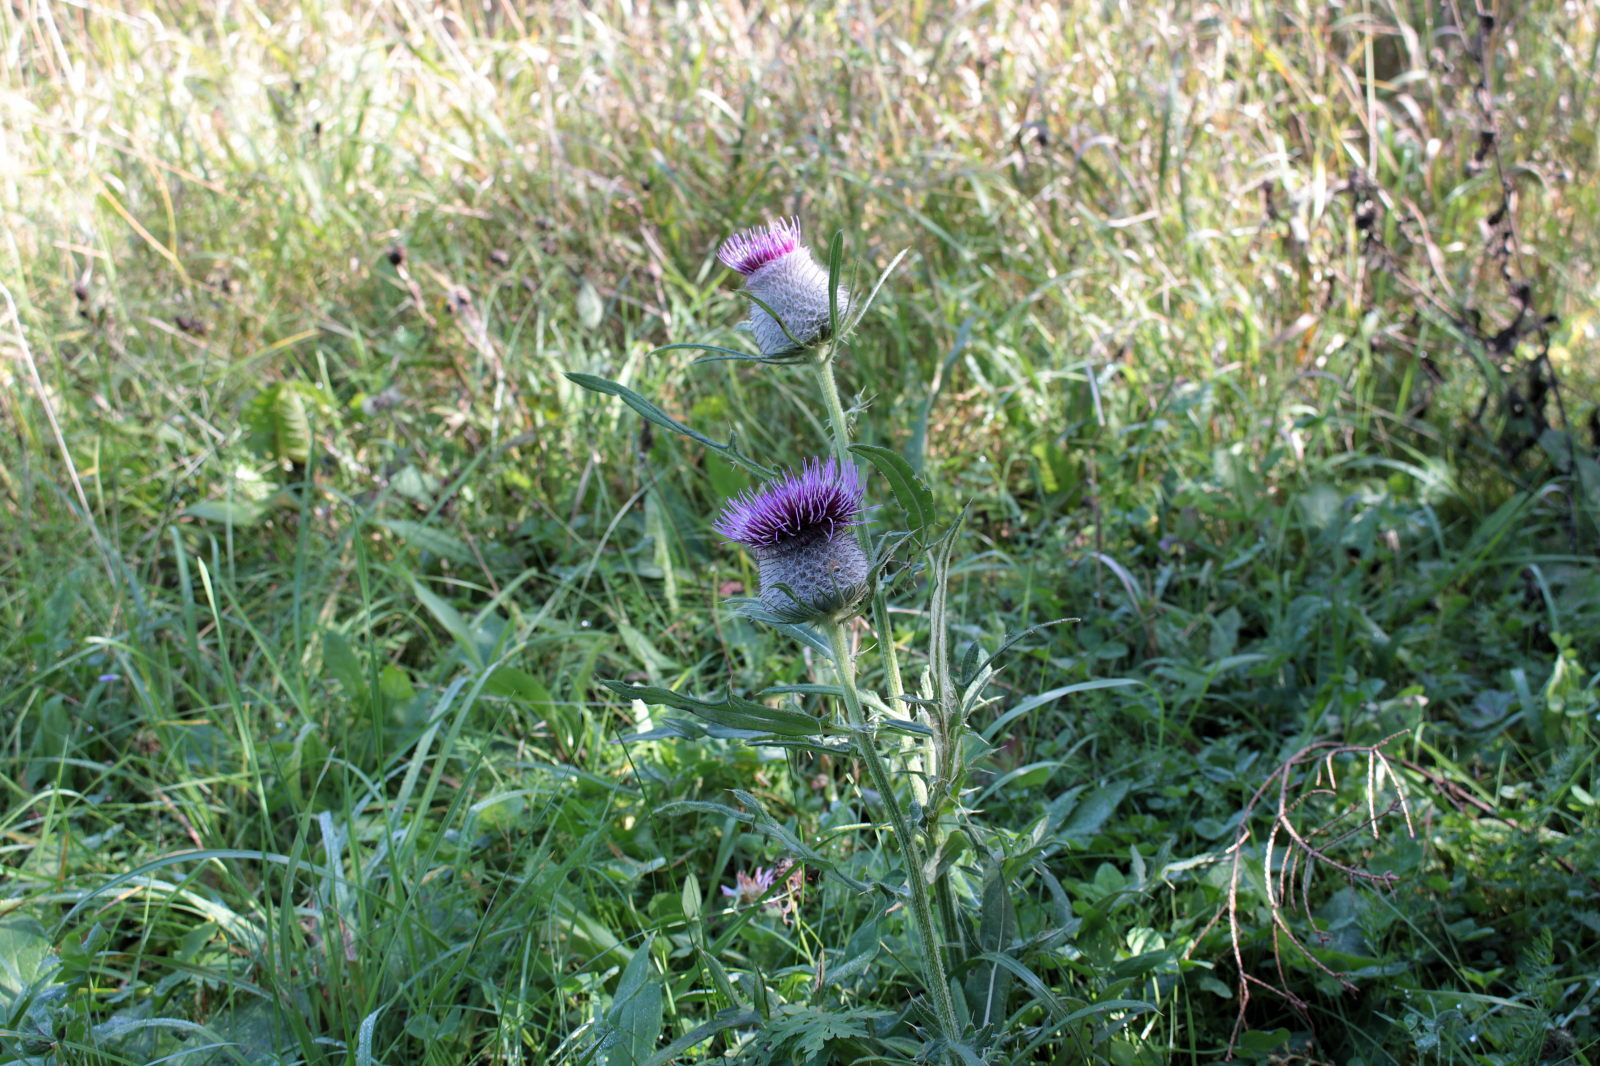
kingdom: Plantae
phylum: Tracheophyta
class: Magnoliopsida
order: Asterales
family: Asteraceae
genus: Lophiolepis
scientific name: Lophiolepis eriophora
